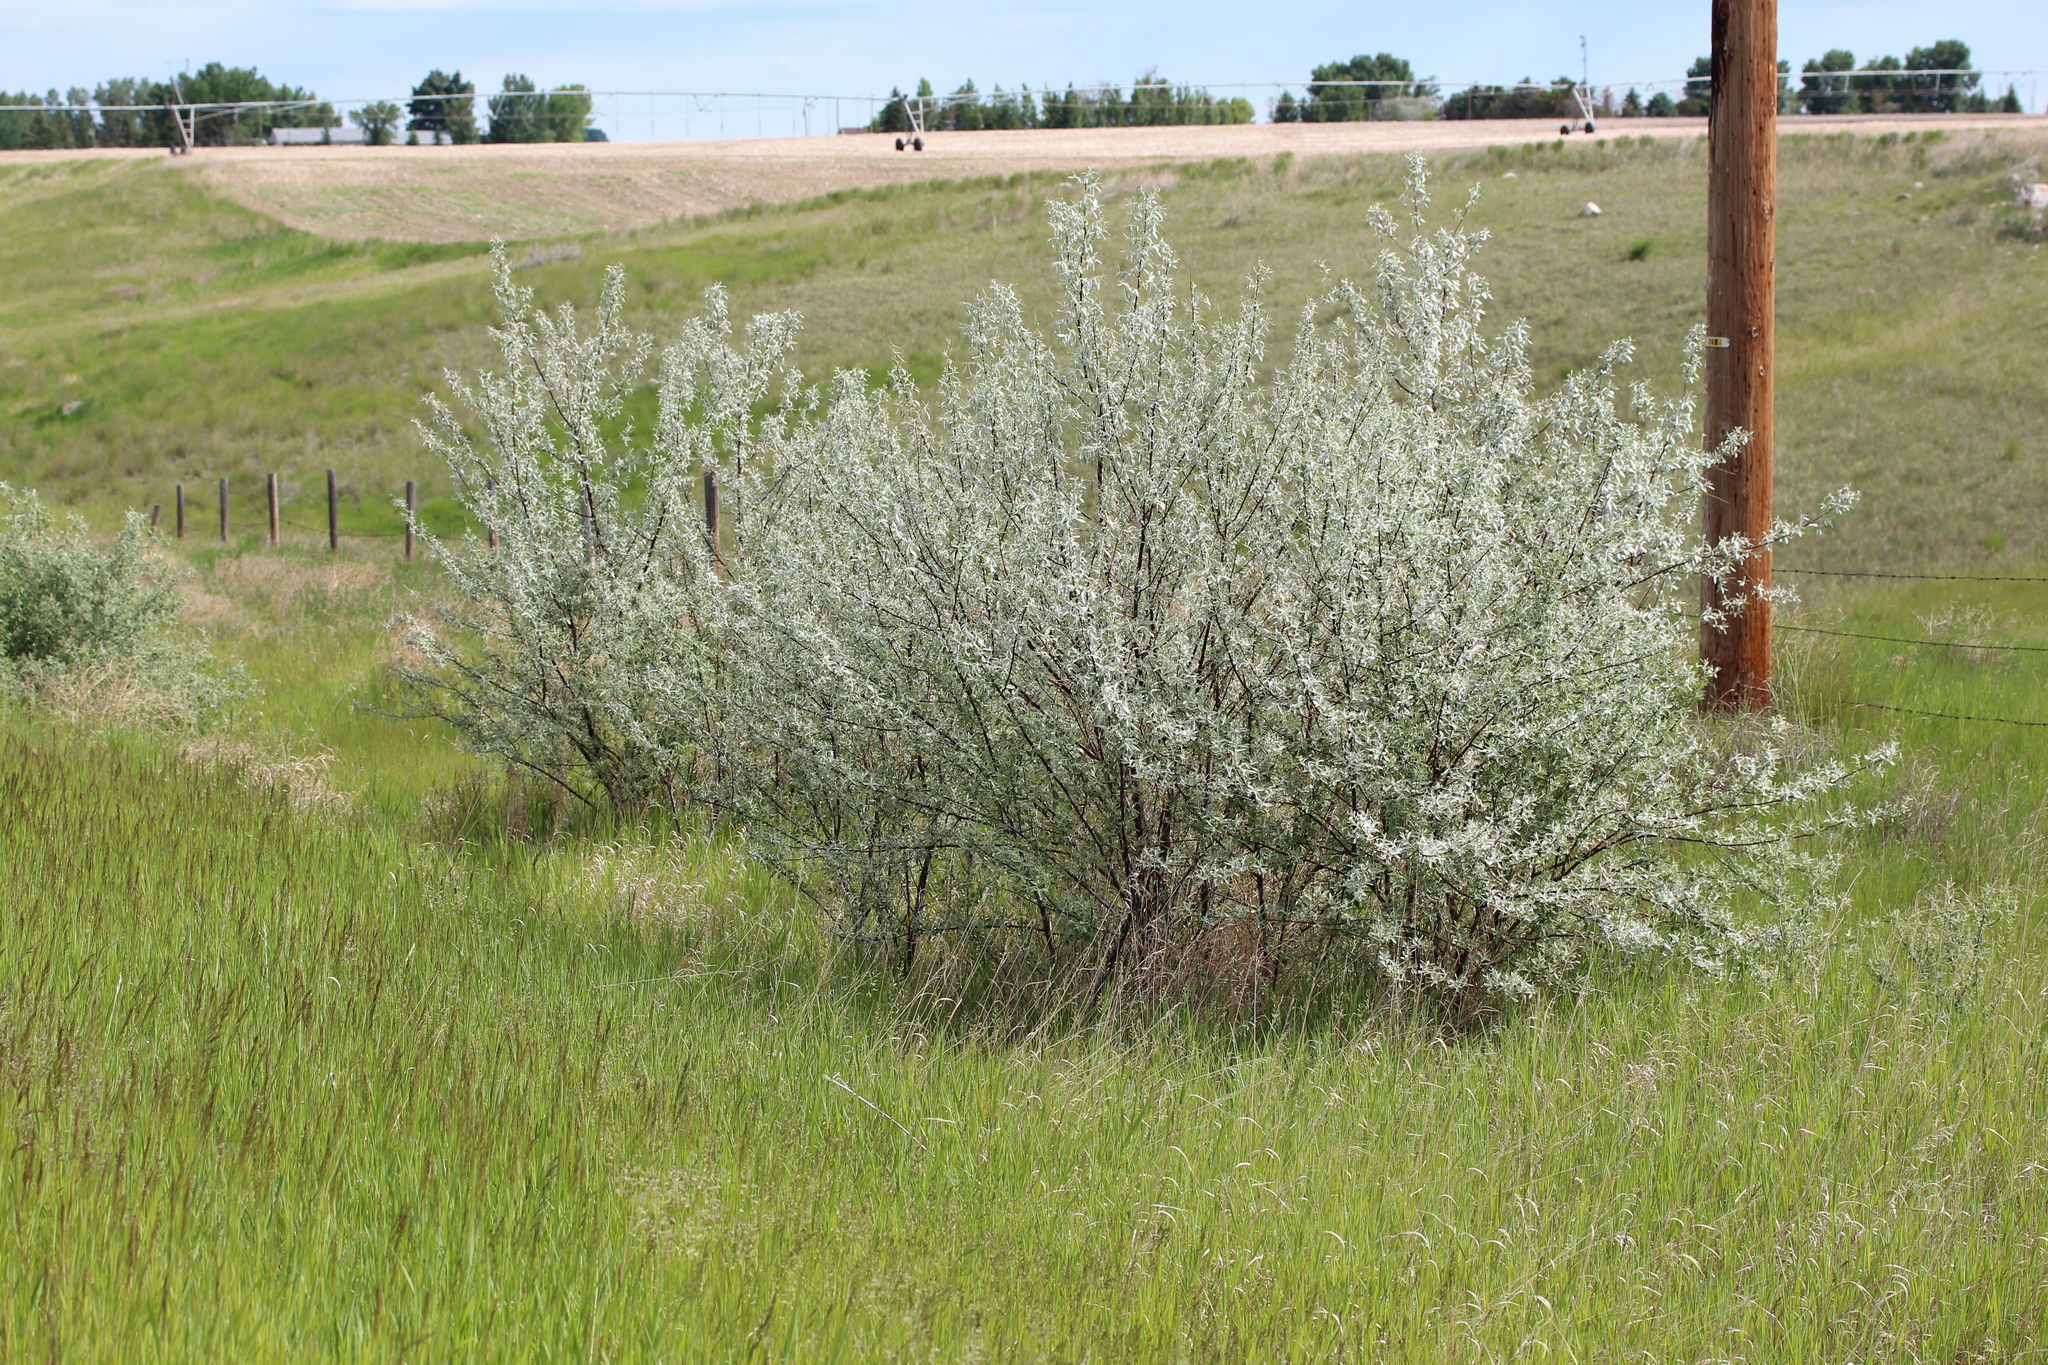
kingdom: Plantae
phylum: Tracheophyta
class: Magnoliopsida
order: Rosales
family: Elaeagnaceae
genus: Elaeagnus
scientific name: Elaeagnus angustifolia
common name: Russian olive
